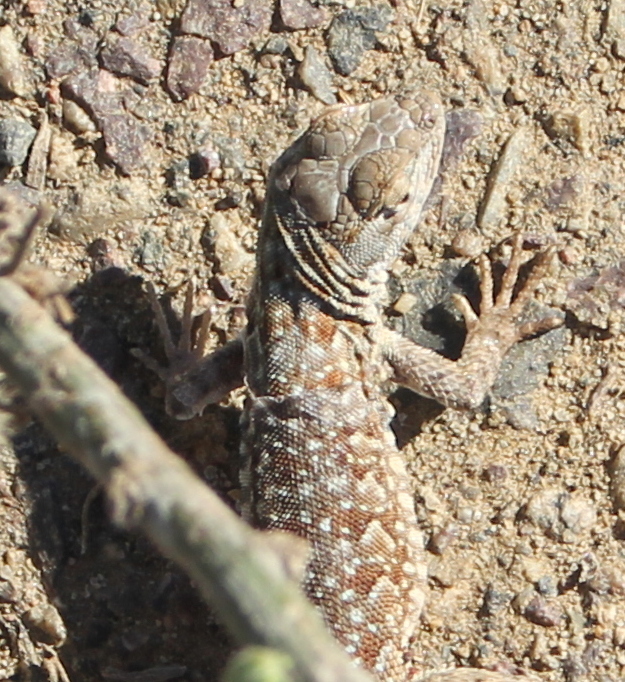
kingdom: Animalia
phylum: Chordata
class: Squamata
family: Phrynosomatidae
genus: Uta
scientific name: Uta stansburiana
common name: Side-blotched lizard
